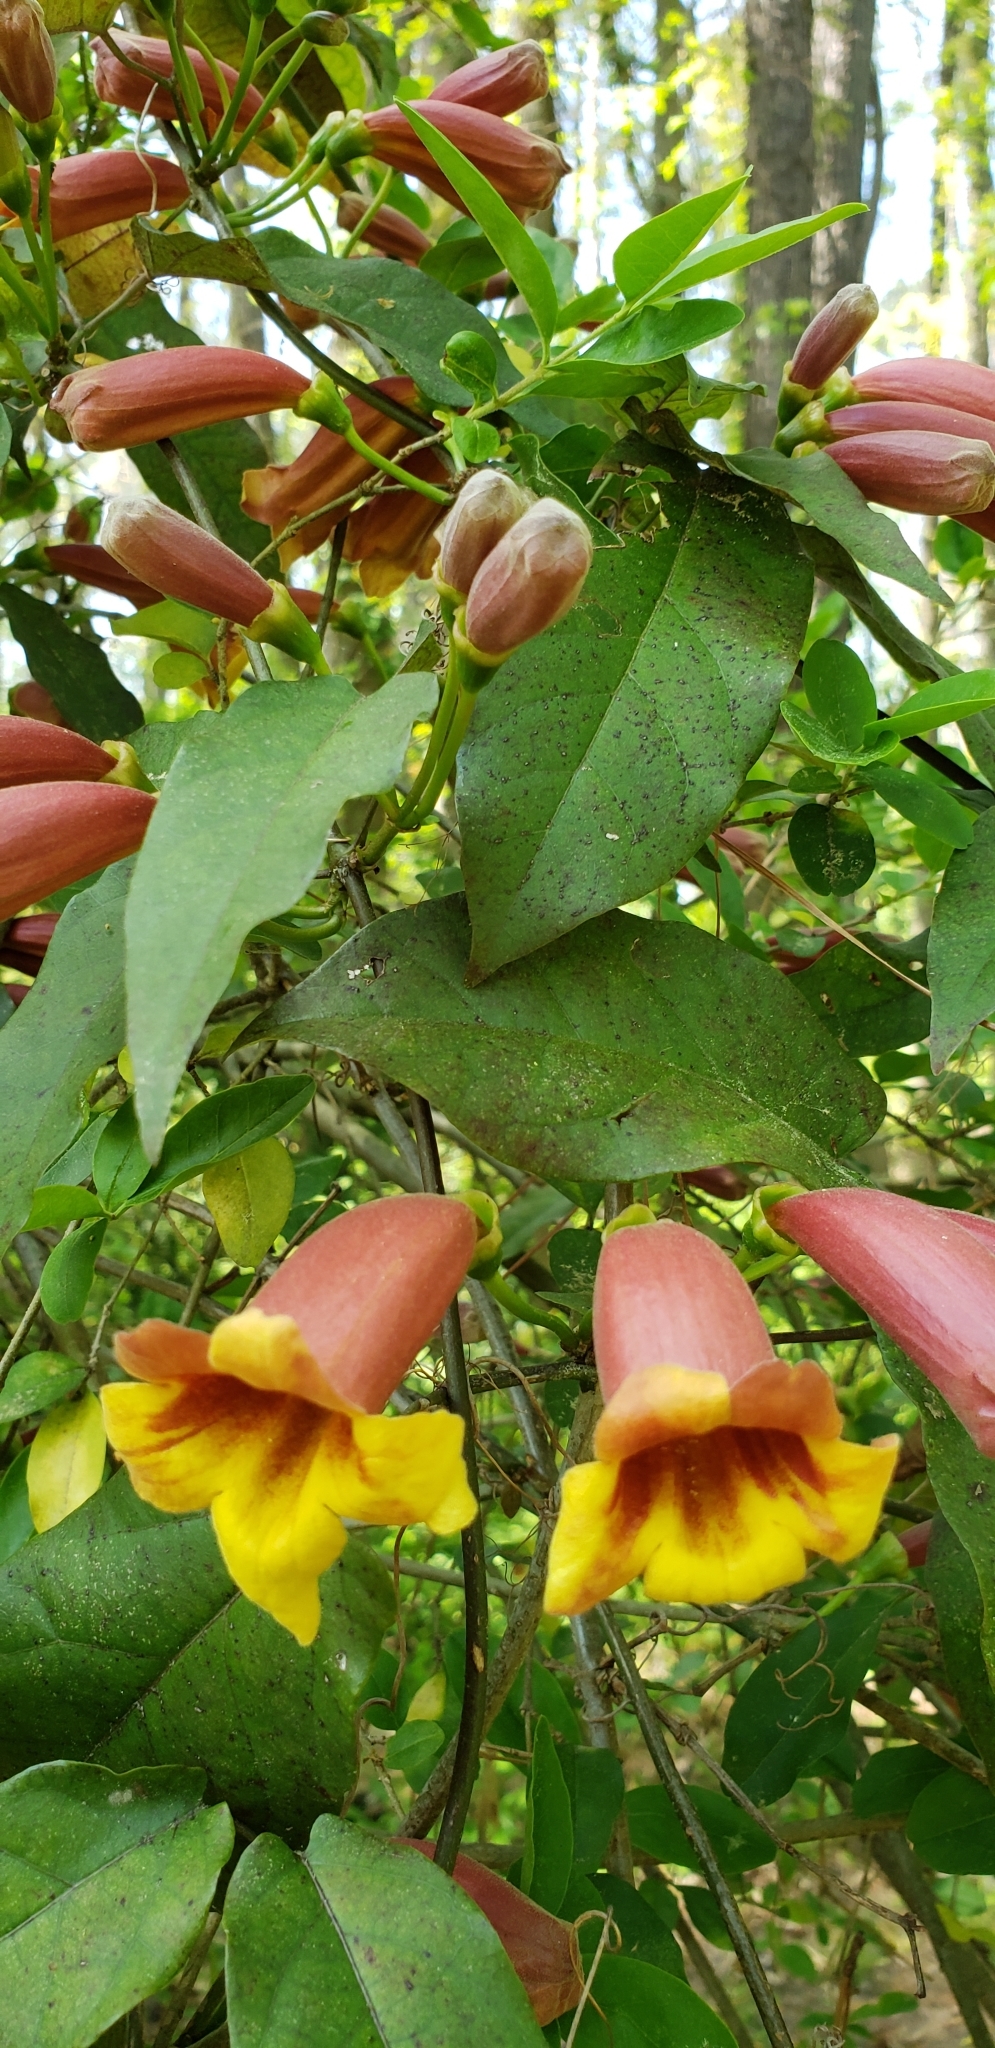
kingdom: Plantae
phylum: Tracheophyta
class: Magnoliopsida
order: Lamiales
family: Bignoniaceae
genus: Bignonia
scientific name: Bignonia capreolata
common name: Crossvine
